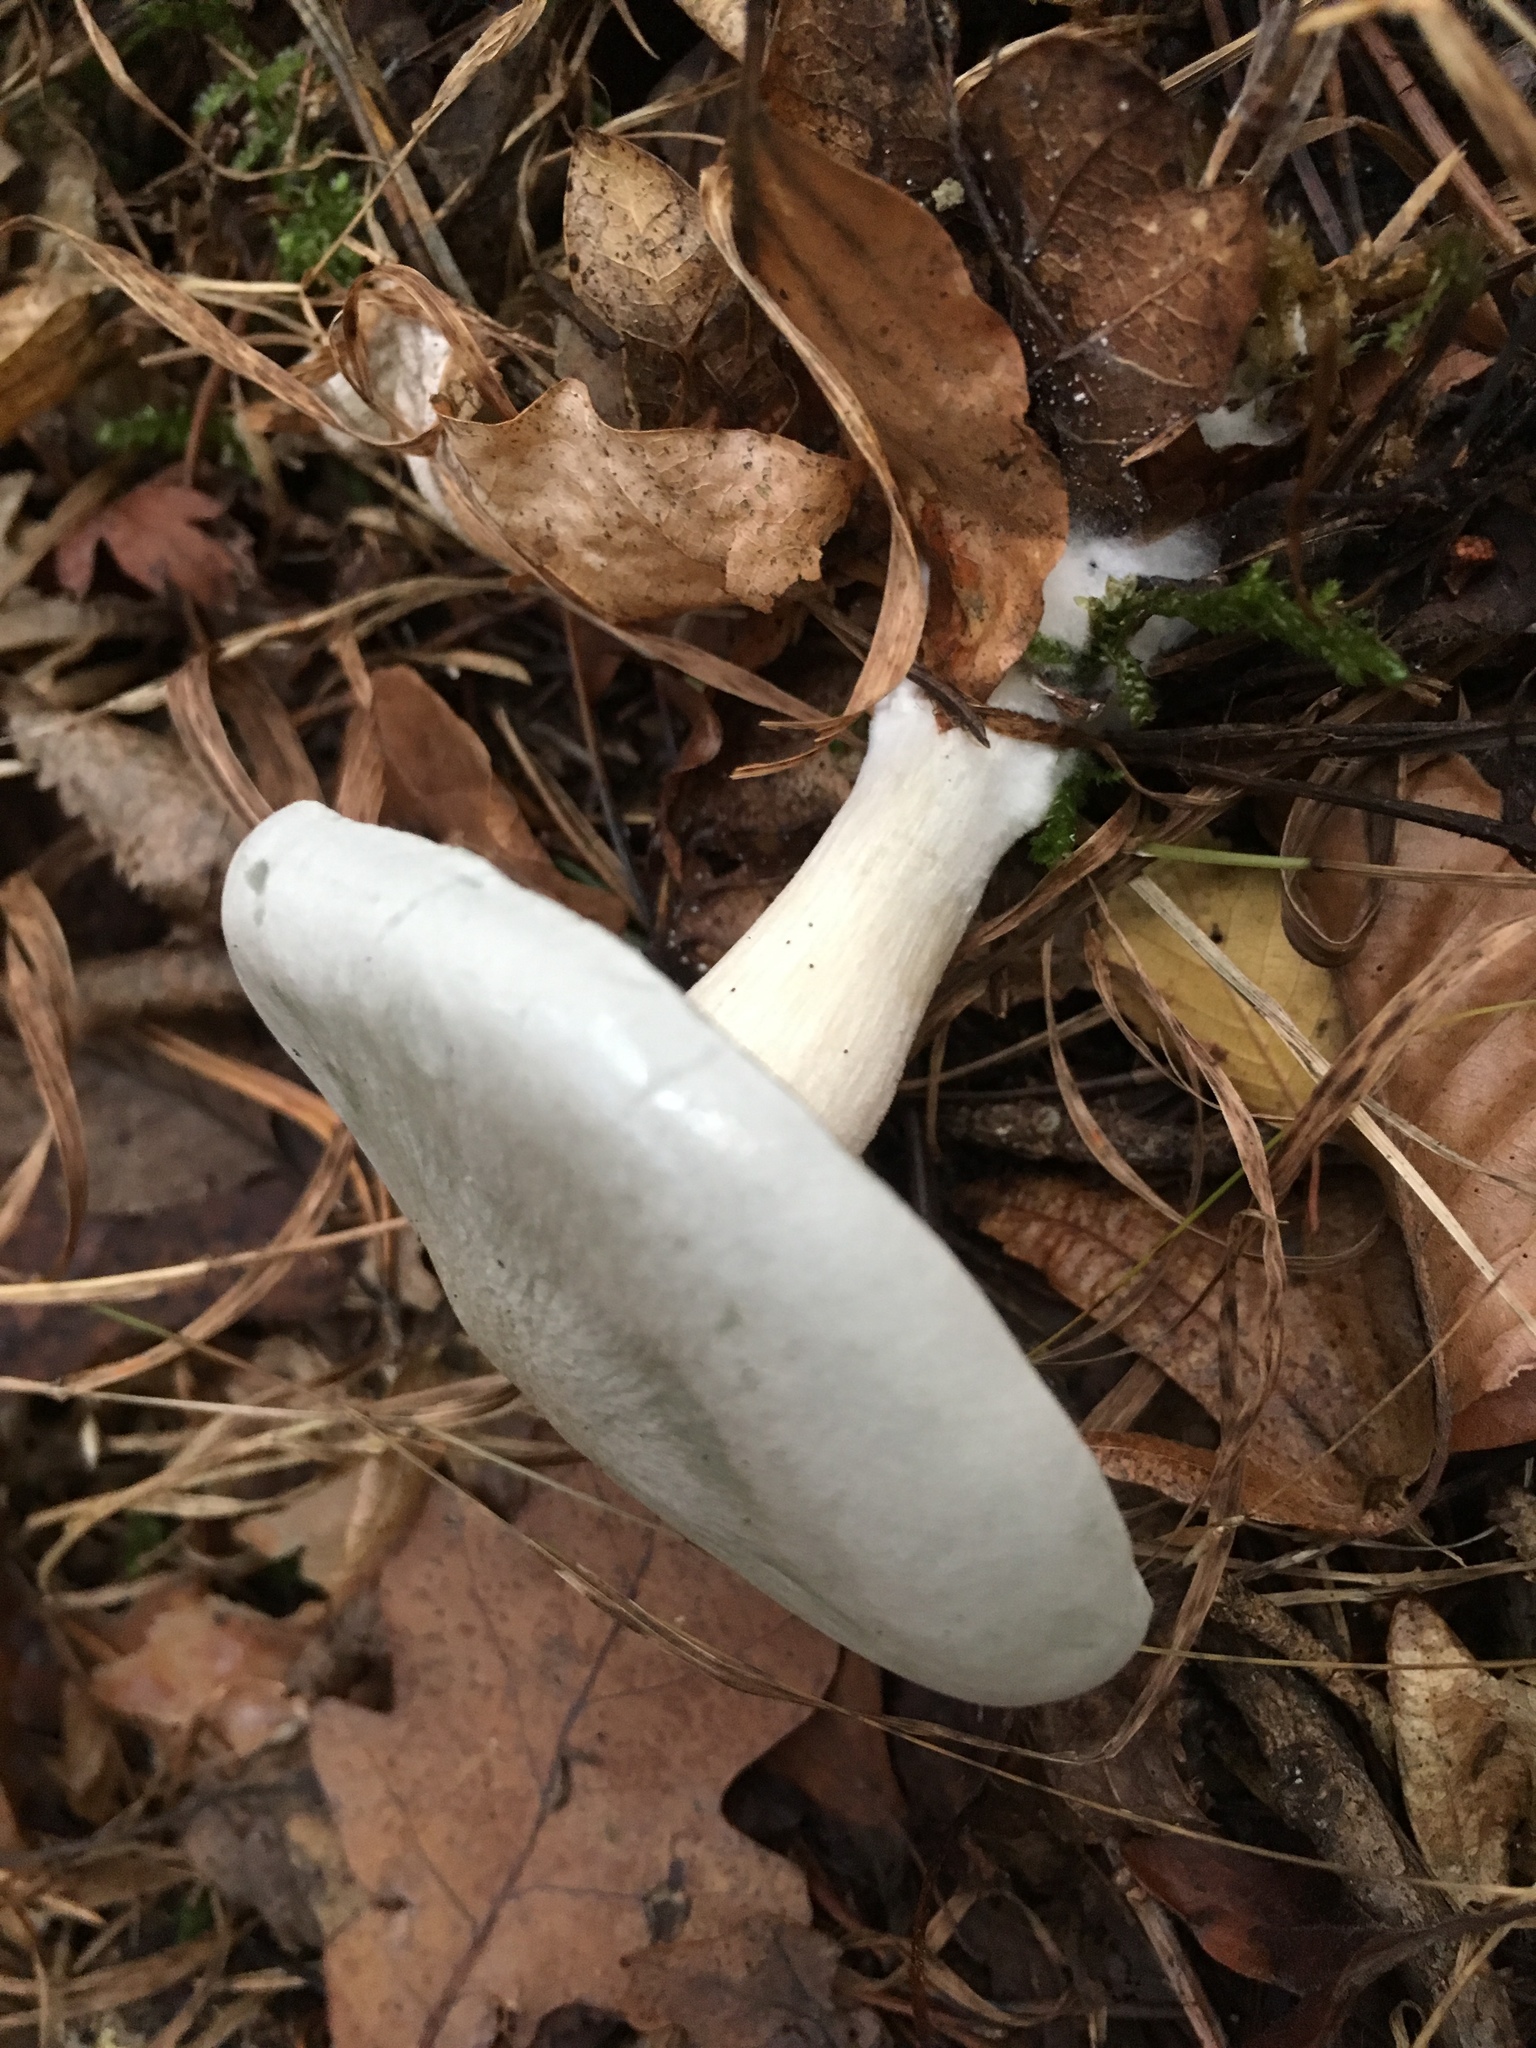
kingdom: Fungi
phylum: Basidiomycota
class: Agaricomycetes
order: Agaricales
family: Tricholomataceae
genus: Collybia
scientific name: Collybia
